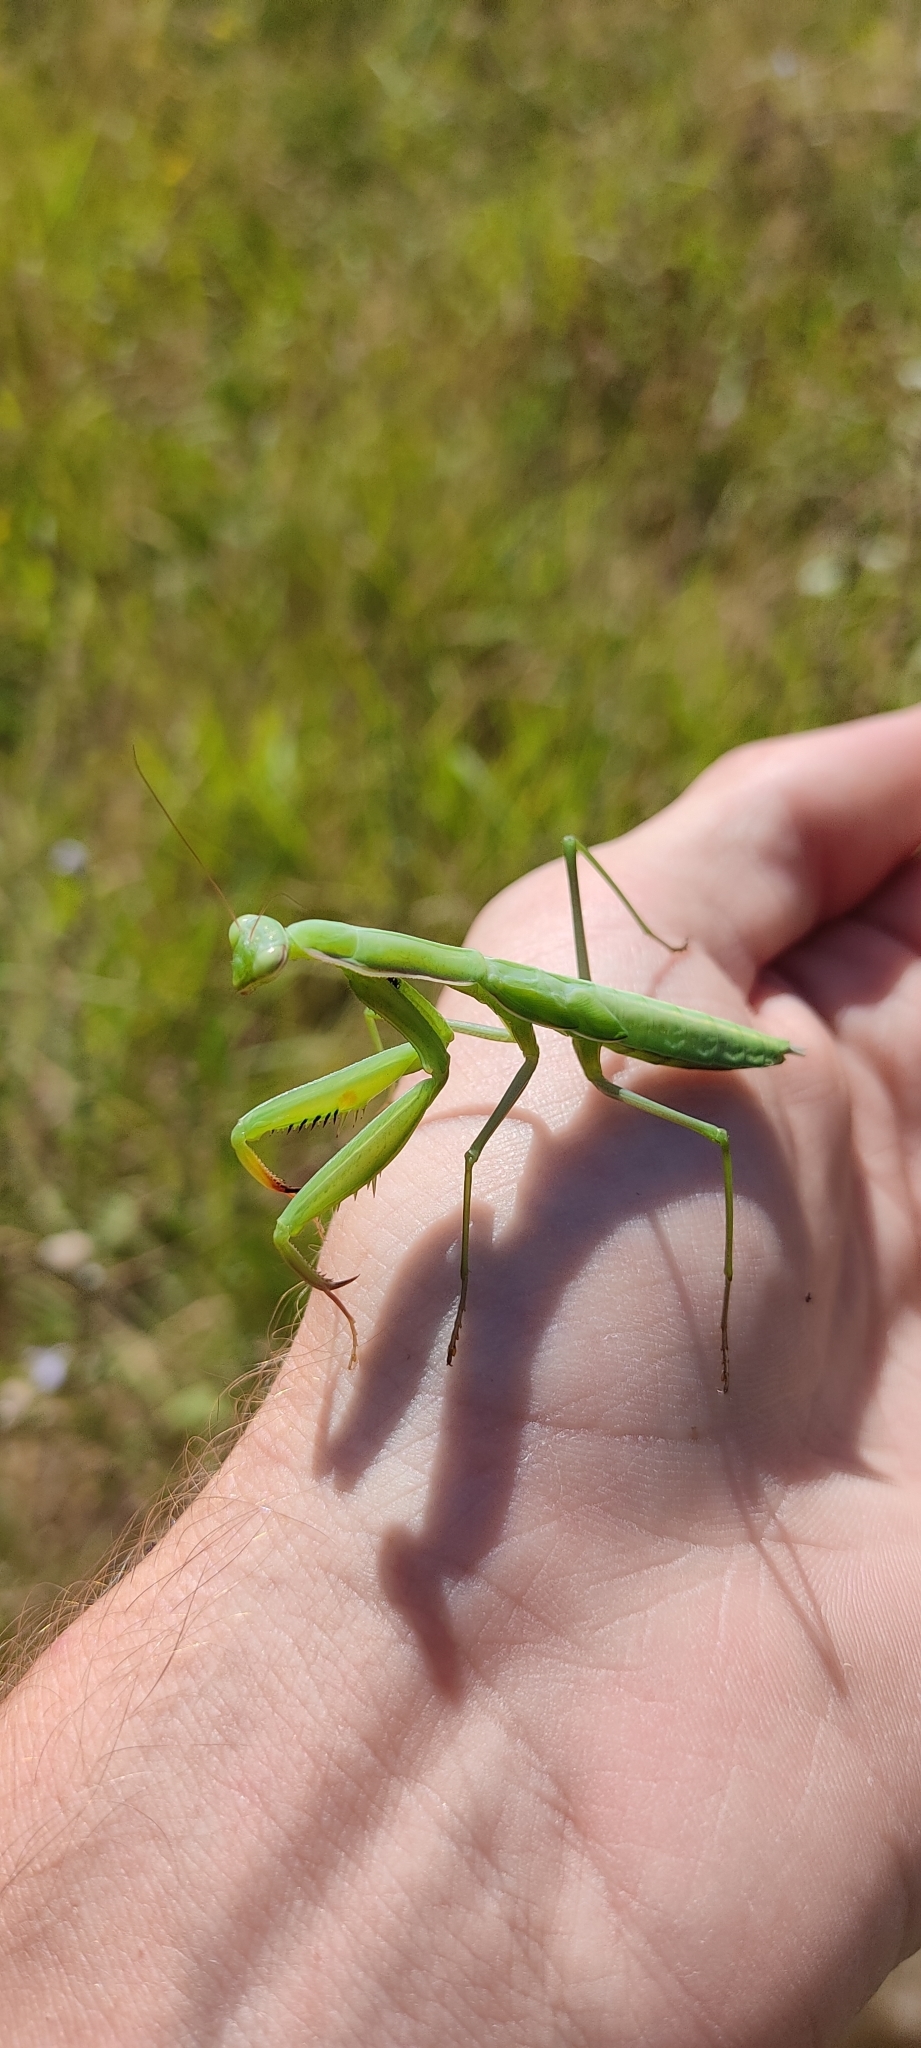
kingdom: Animalia
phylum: Arthropoda
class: Insecta
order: Mantodea
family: Mantidae
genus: Mantis
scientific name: Mantis religiosa
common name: Praying mantis
